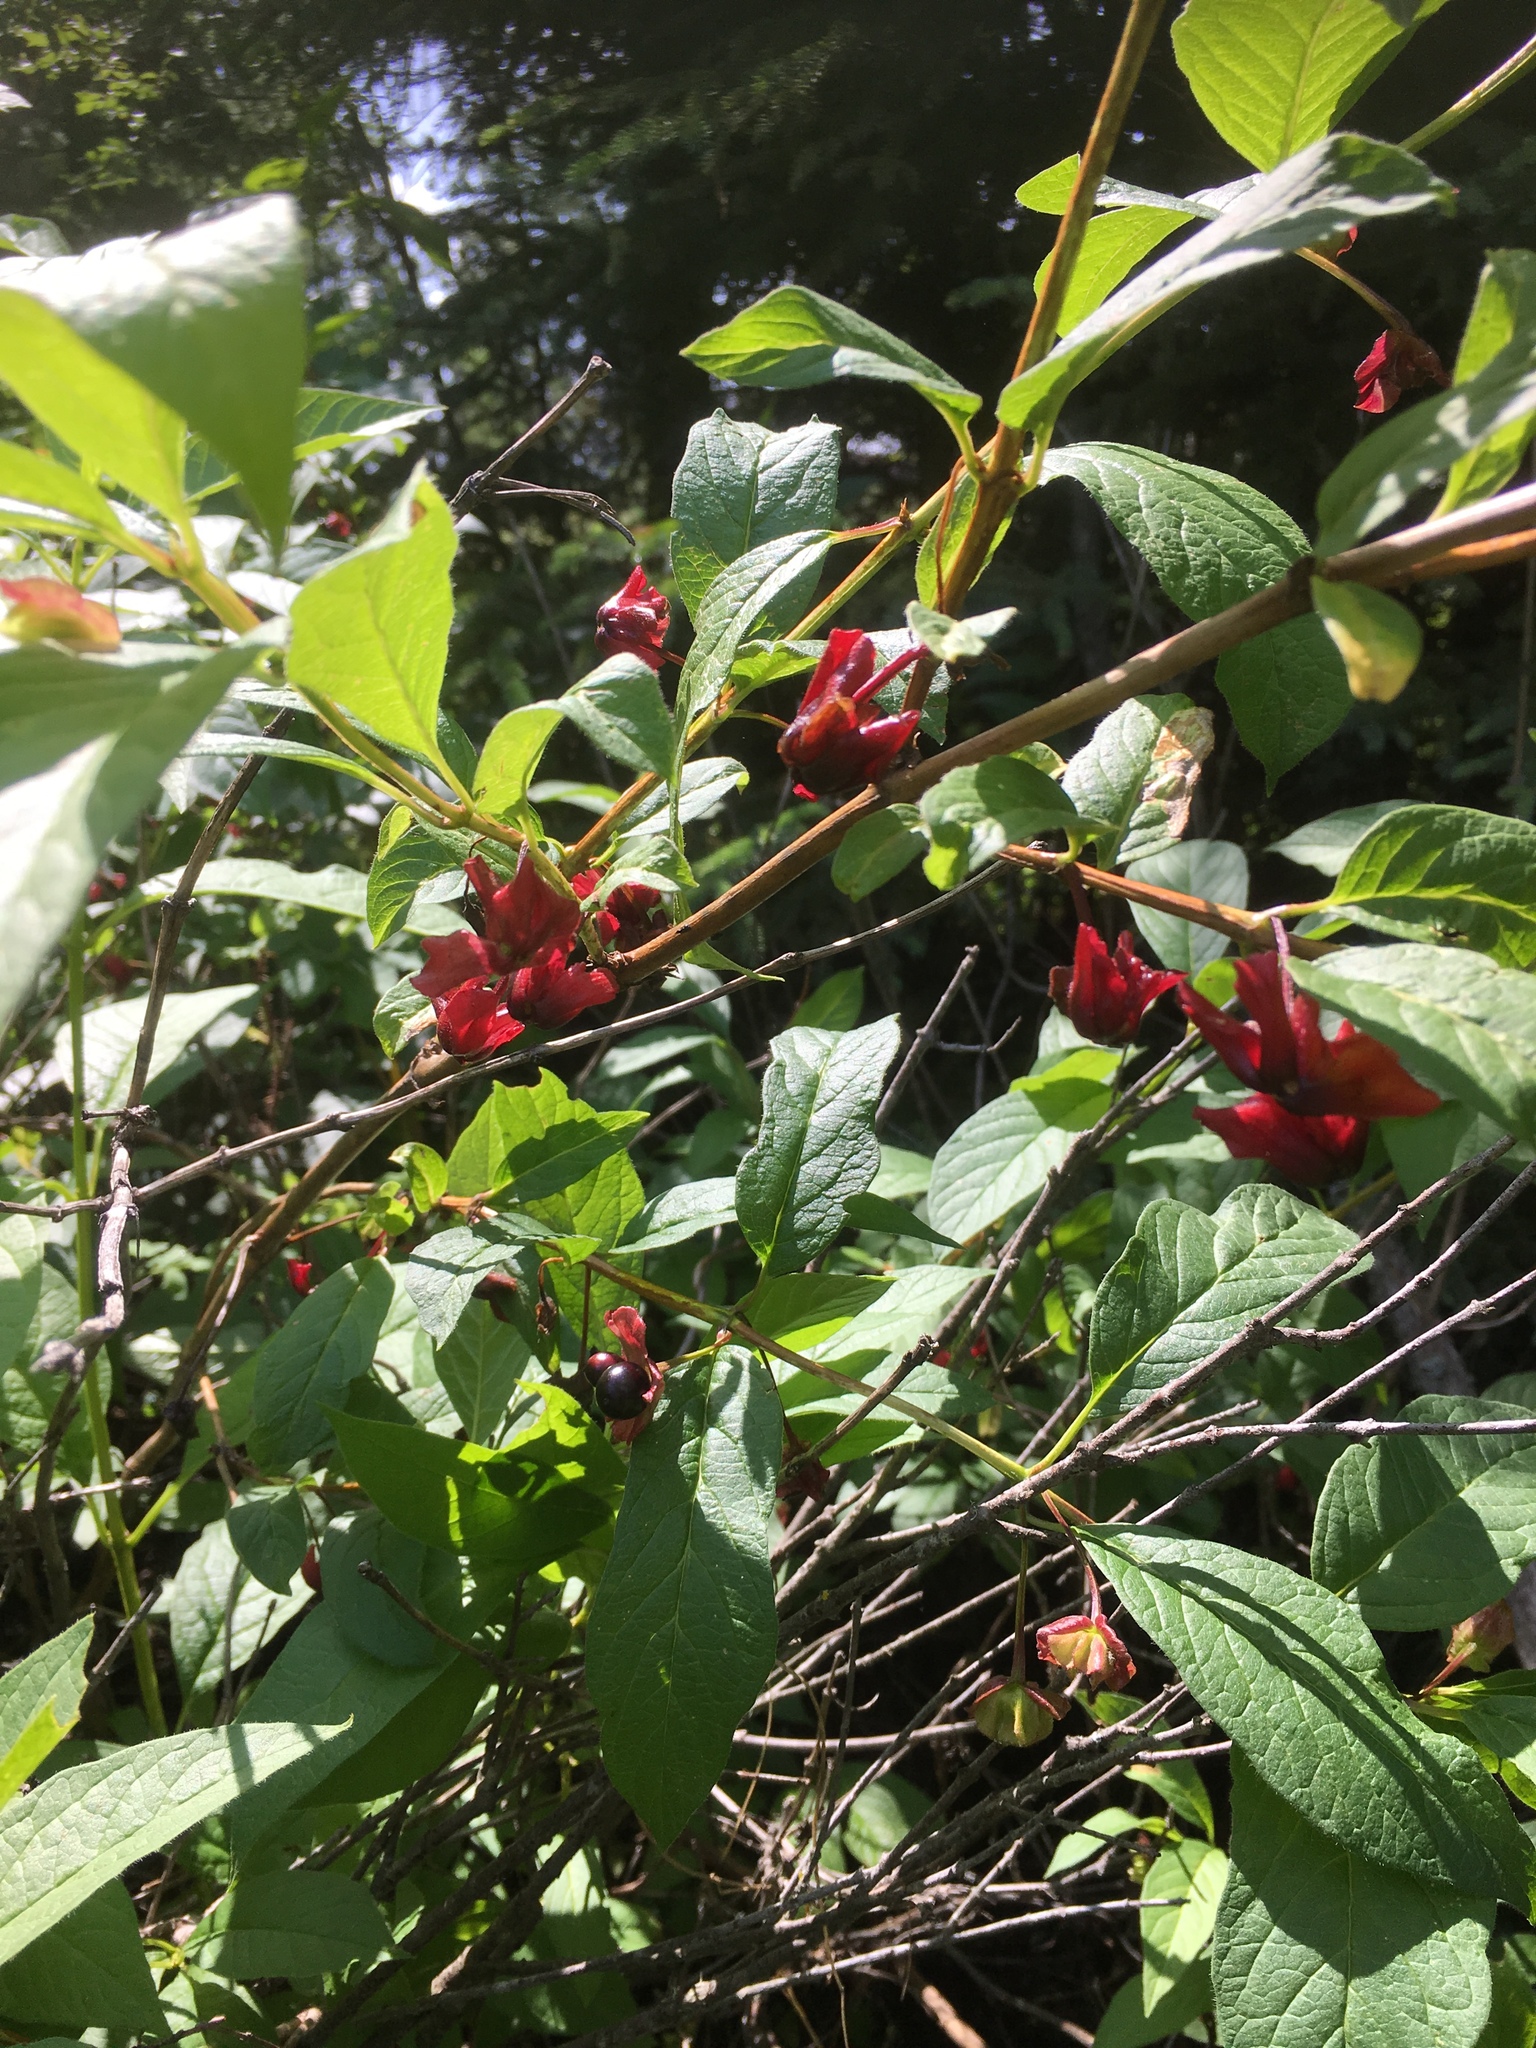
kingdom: Plantae
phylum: Tracheophyta
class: Magnoliopsida
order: Dipsacales
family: Caprifoliaceae
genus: Lonicera
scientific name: Lonicera involucrata
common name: Californian honeysuckle
